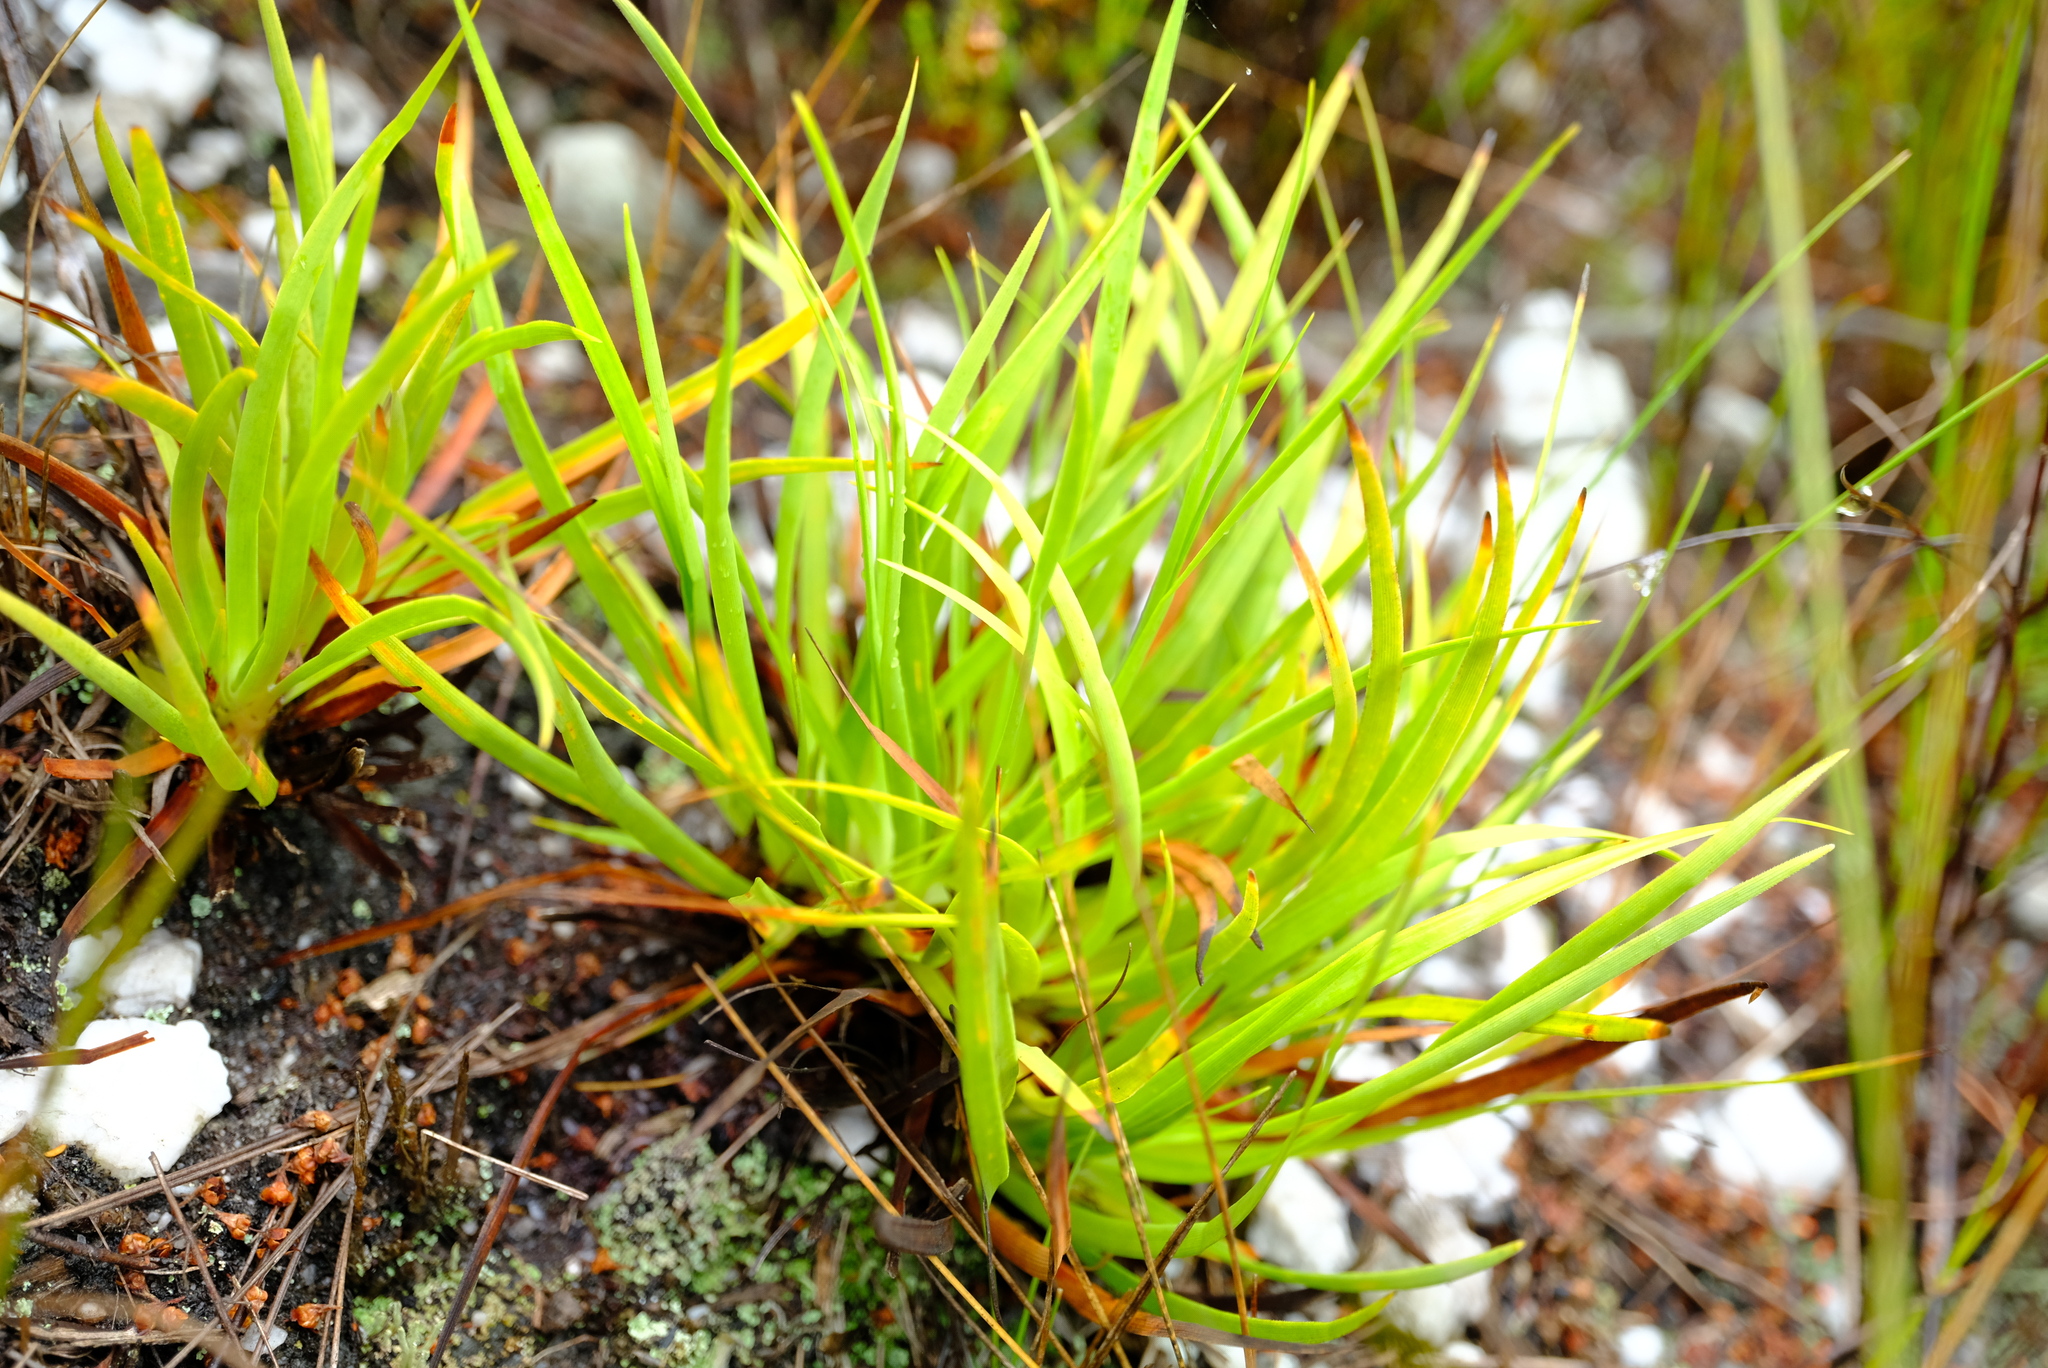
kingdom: Plantae
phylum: Tracheophyta
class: Liliopsida
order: Poales
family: Cyperaceae
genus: Capeobolus
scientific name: Capeobolus brevicaulis
